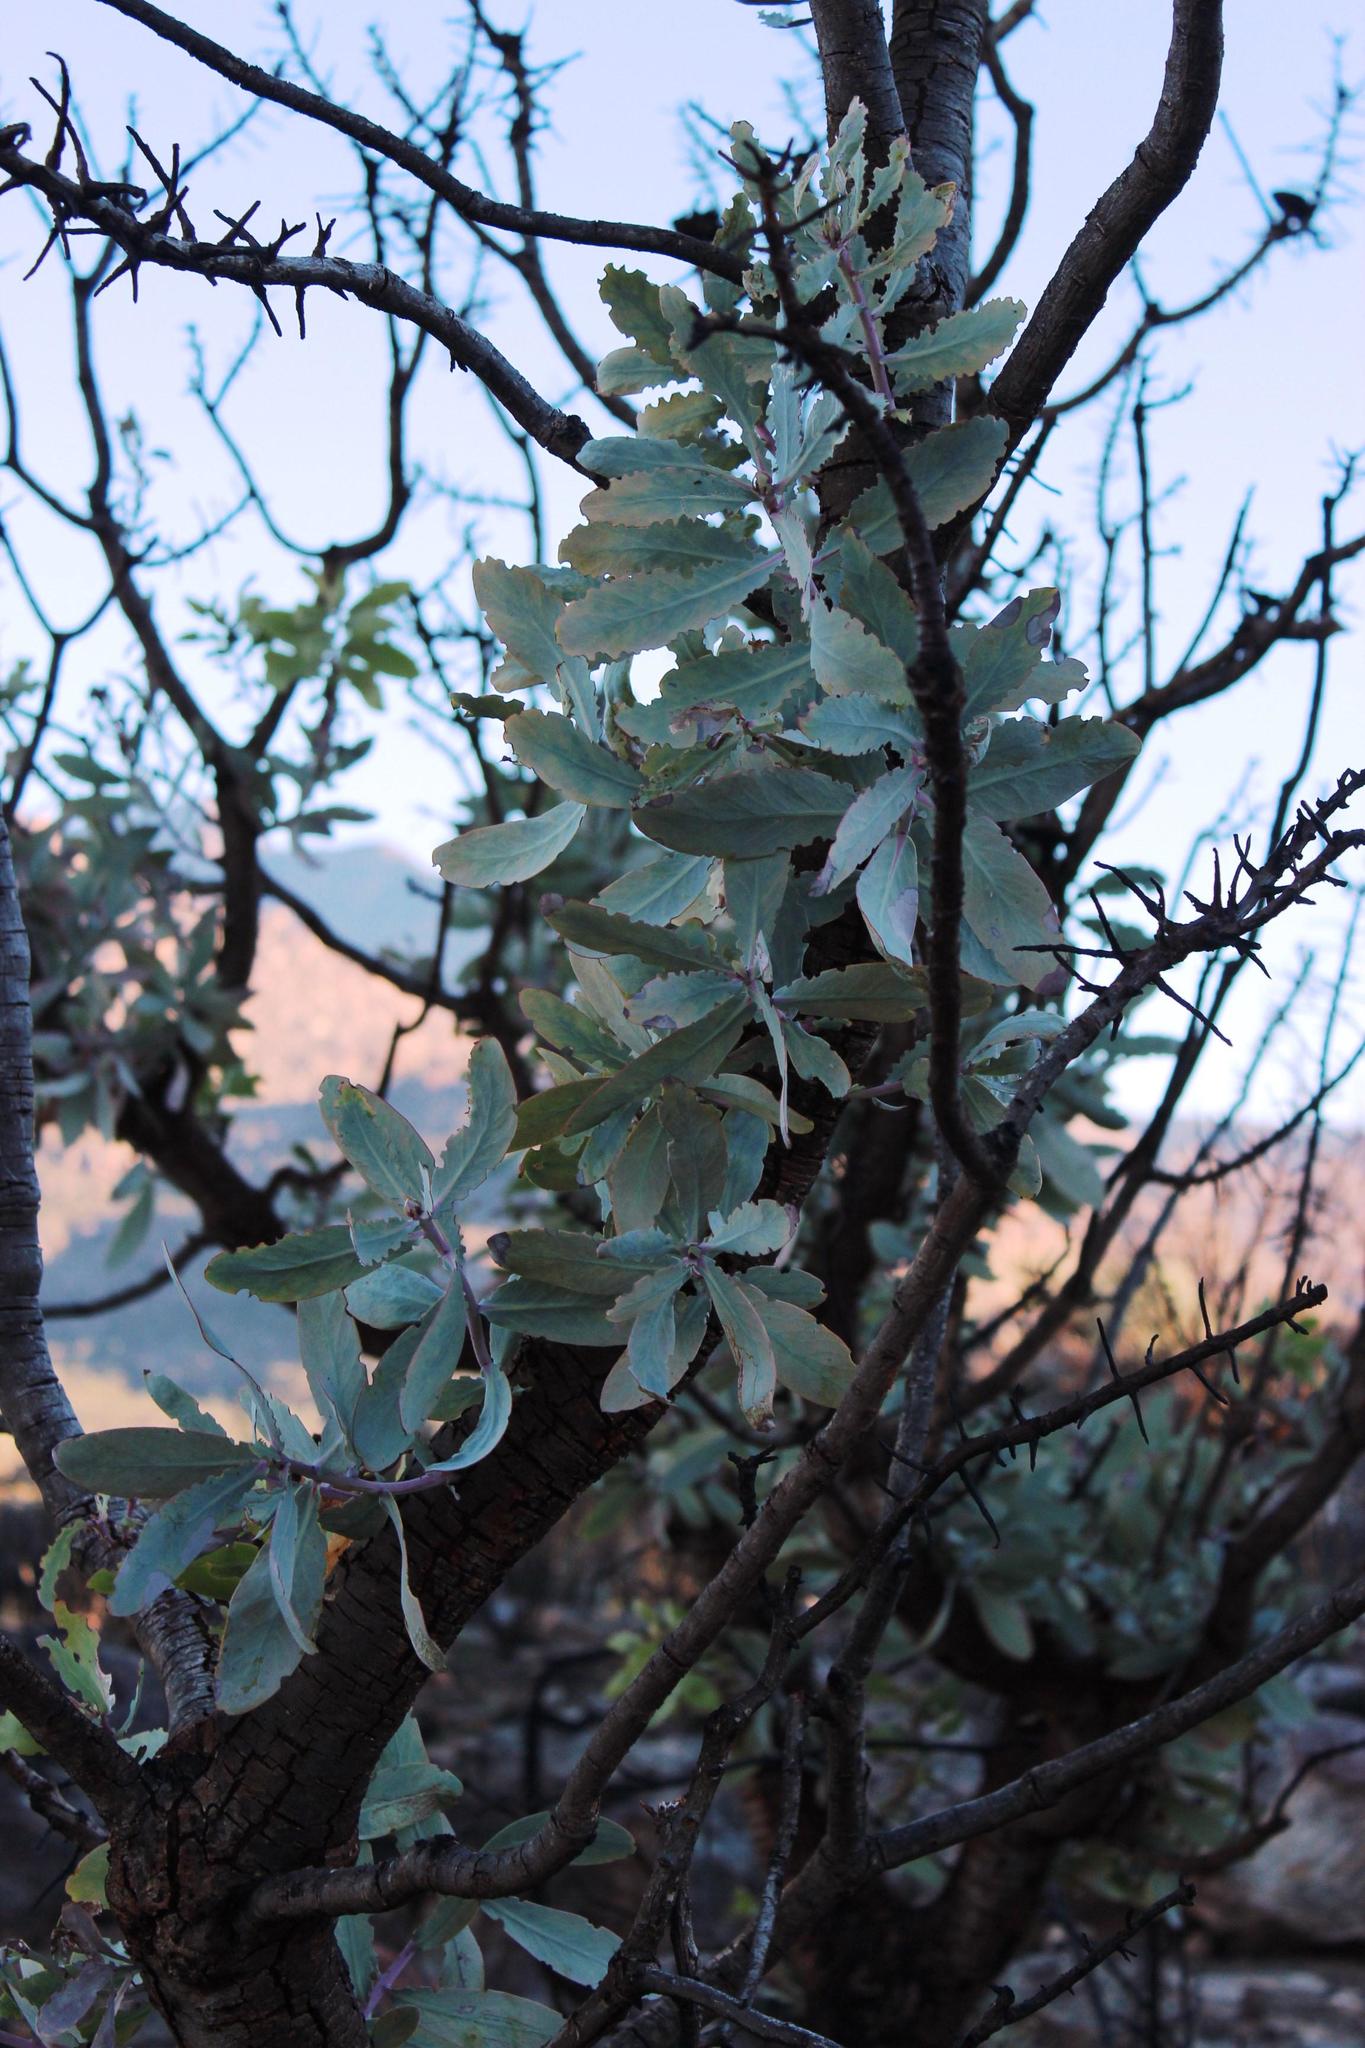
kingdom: Plantae
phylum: Tracheophyta
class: Magnoliopsida
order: Proteales
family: Proteaceae
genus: Protea
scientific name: Protea nitida
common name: Tree protea
